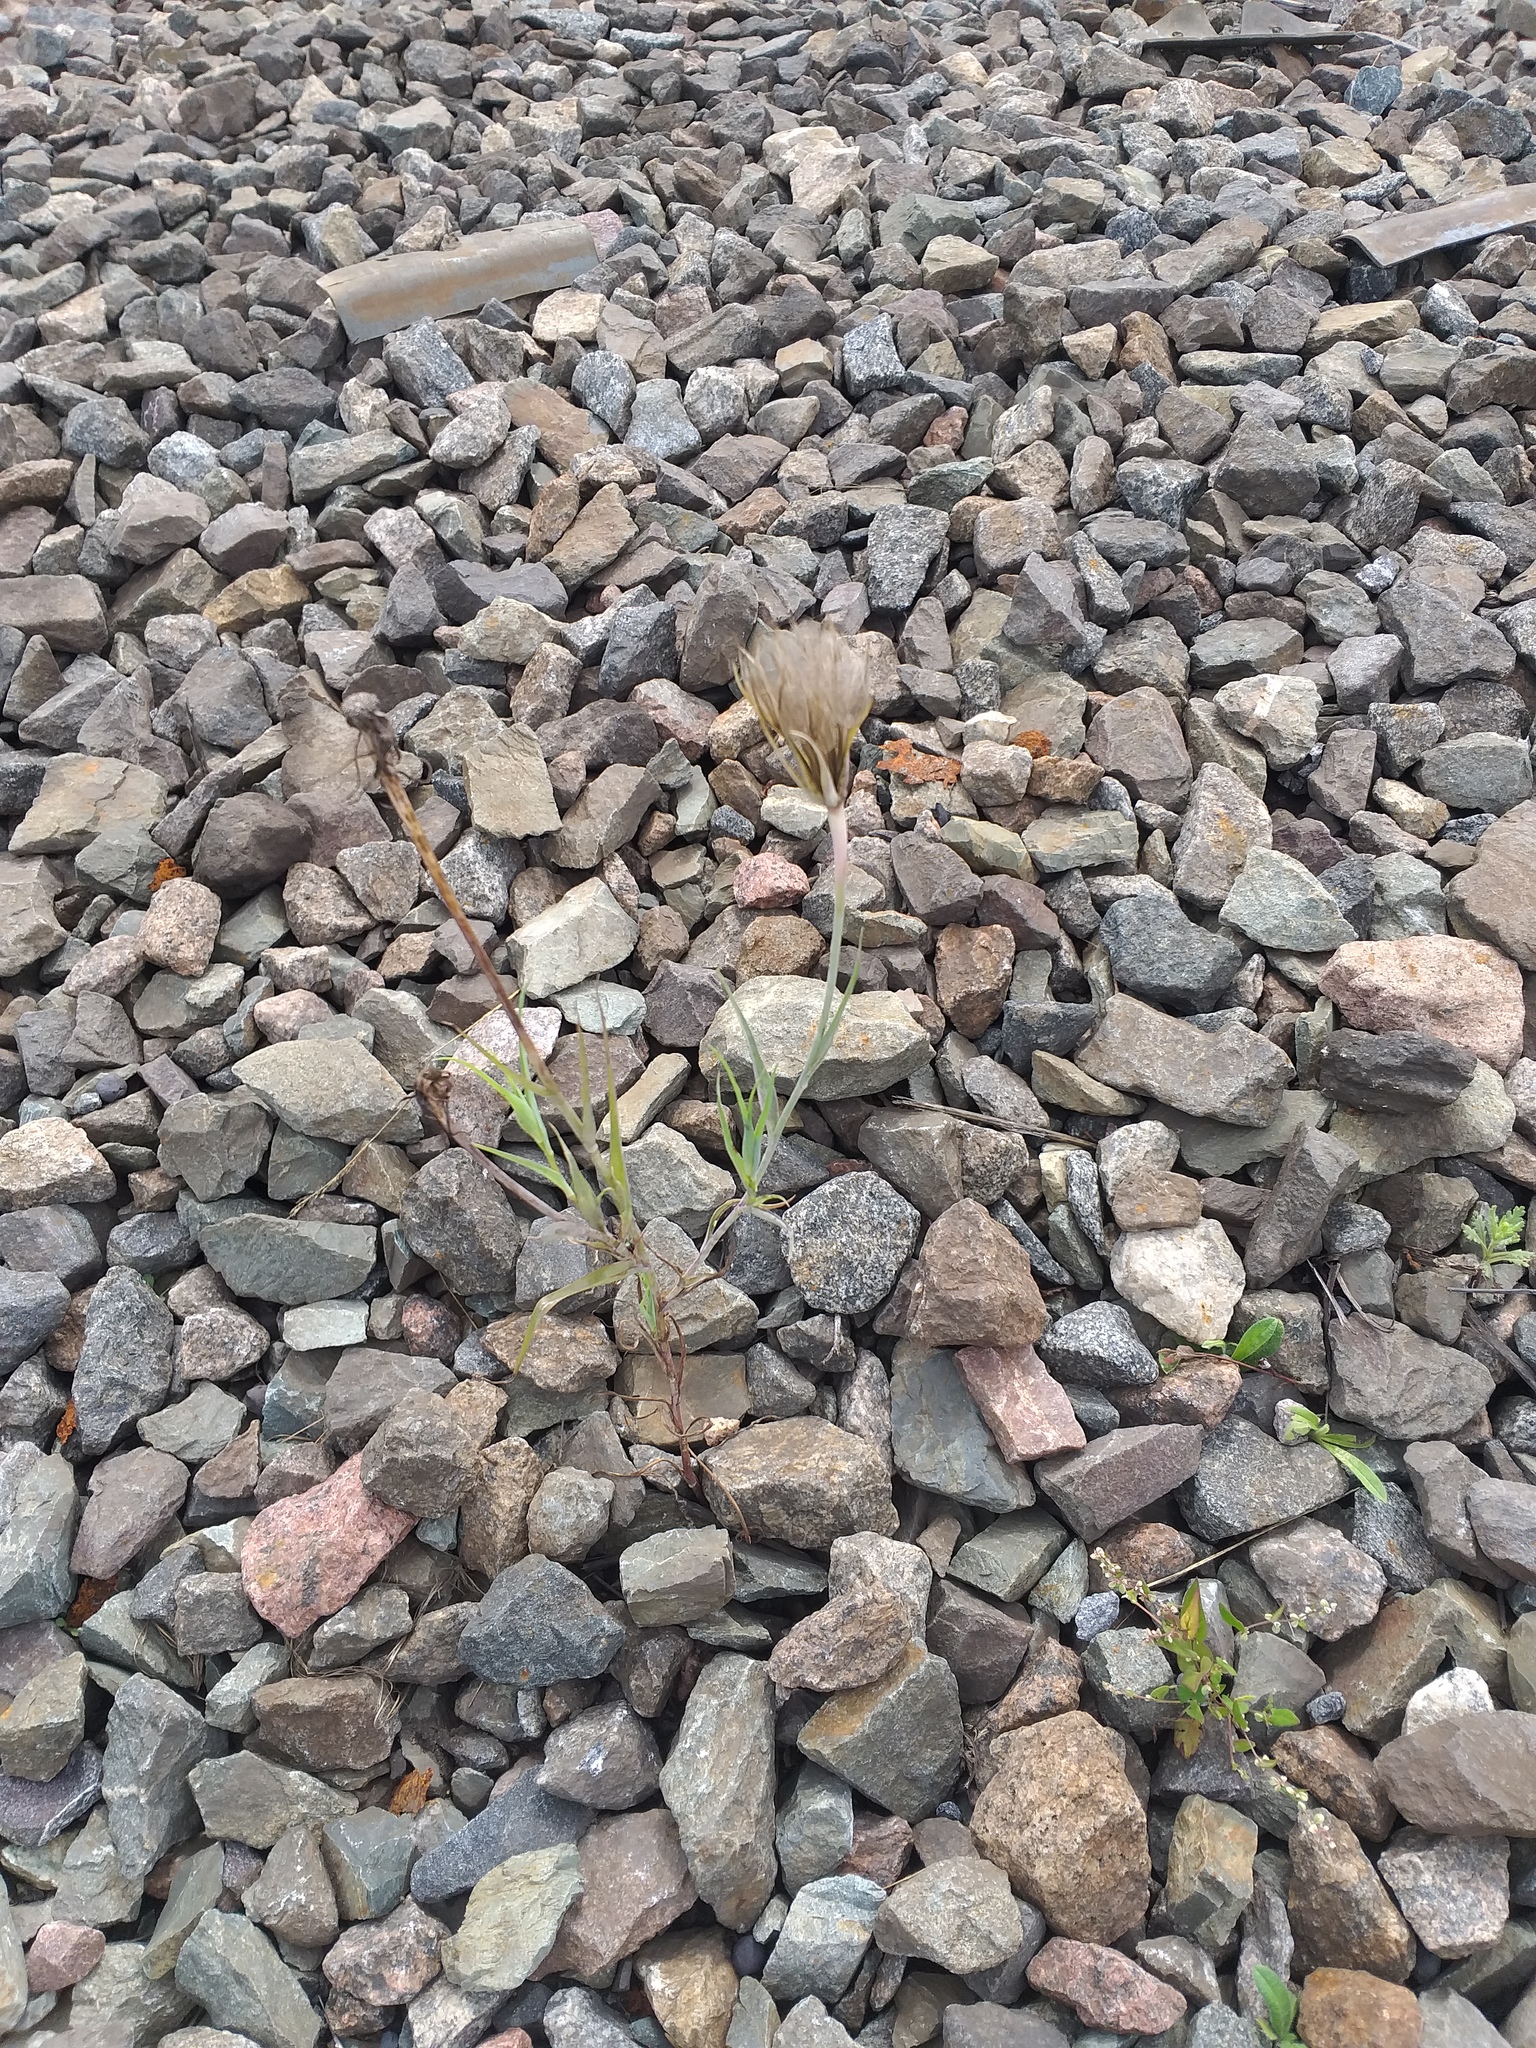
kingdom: Plantae
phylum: Tracheophyta
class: Magnoliopsida
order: Asterales
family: Asteraceae
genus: Tragopogon
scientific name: Tragopogon dubius
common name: Yellow salsify
